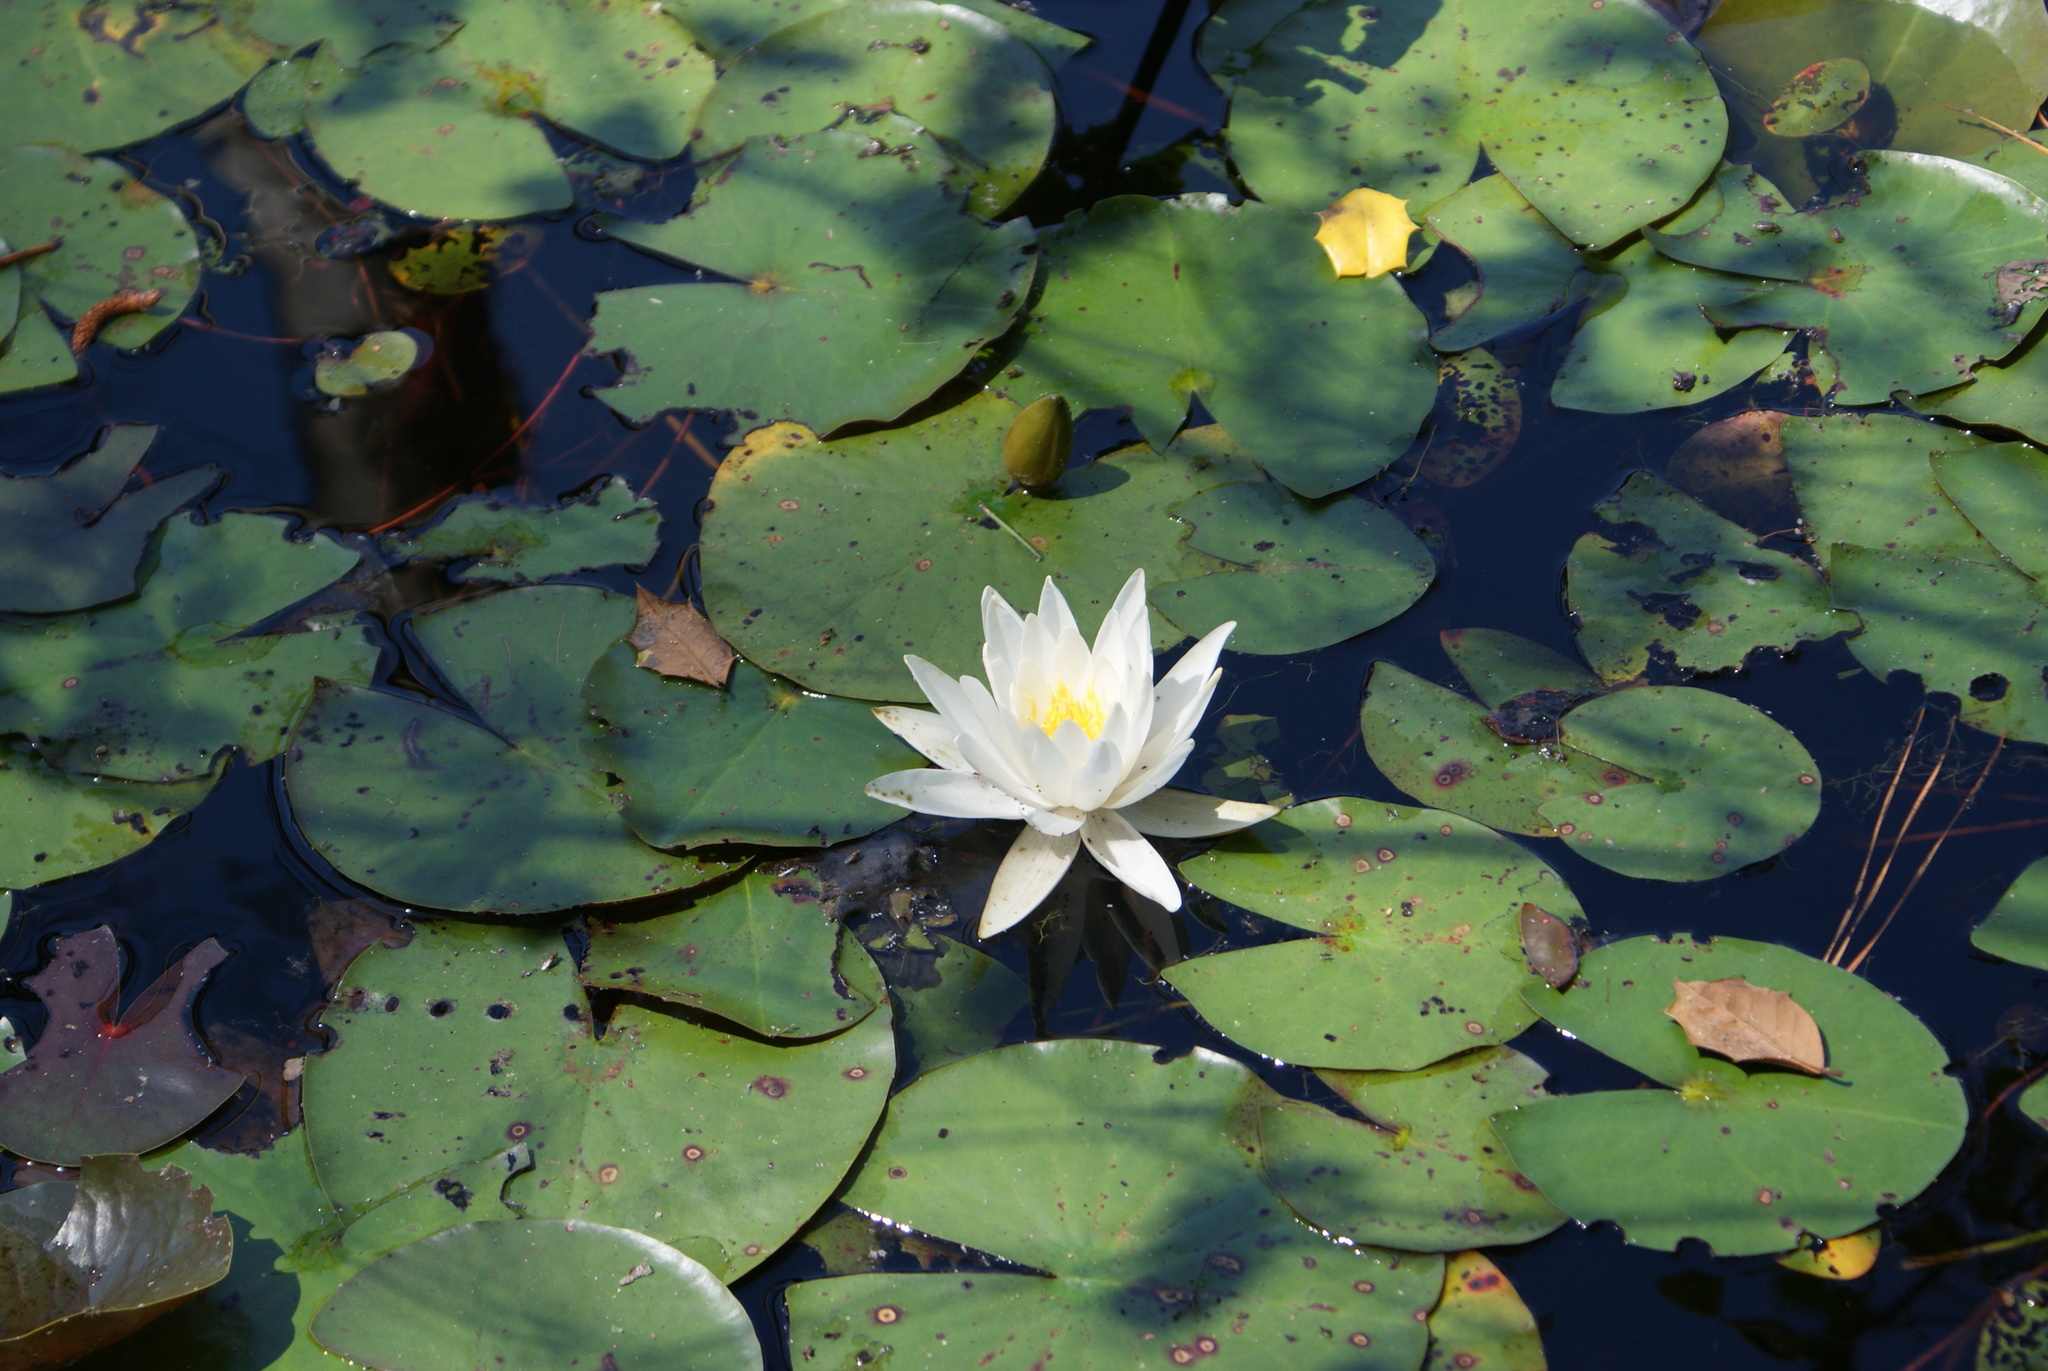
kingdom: Plantae
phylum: Tracheophyta
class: Magnoliopsida
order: Nymphaeales
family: Nymphaeaceae
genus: Nymphaea
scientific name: Nymphaea odorata
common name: Fragrant water-lily
